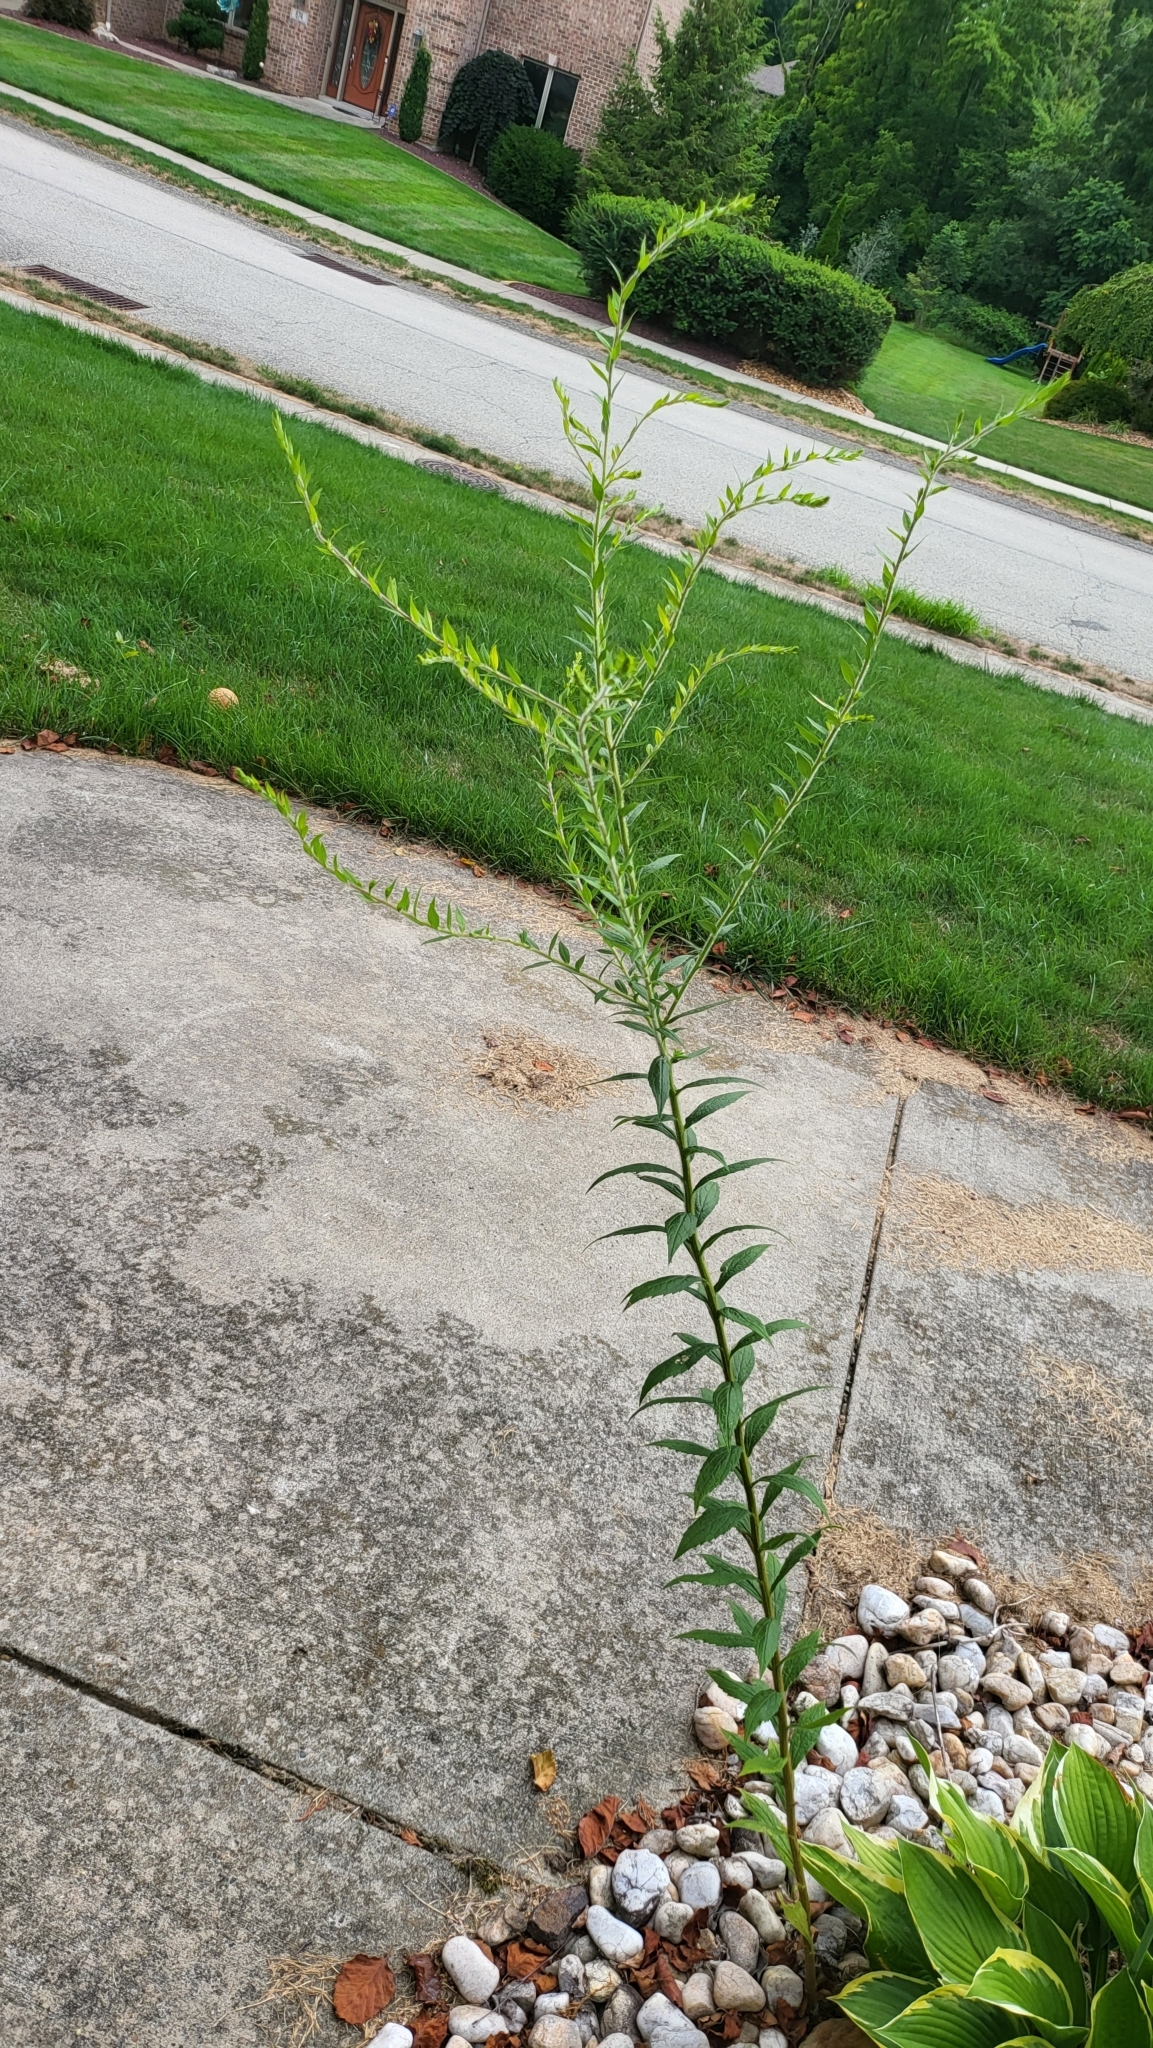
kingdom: Plantae
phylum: Tracheophyta
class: Magnoliopsida
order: Asterales
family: Asteraceae
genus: Solidago
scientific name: Solidago rugosa
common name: Rough-stemmed goldenrod
